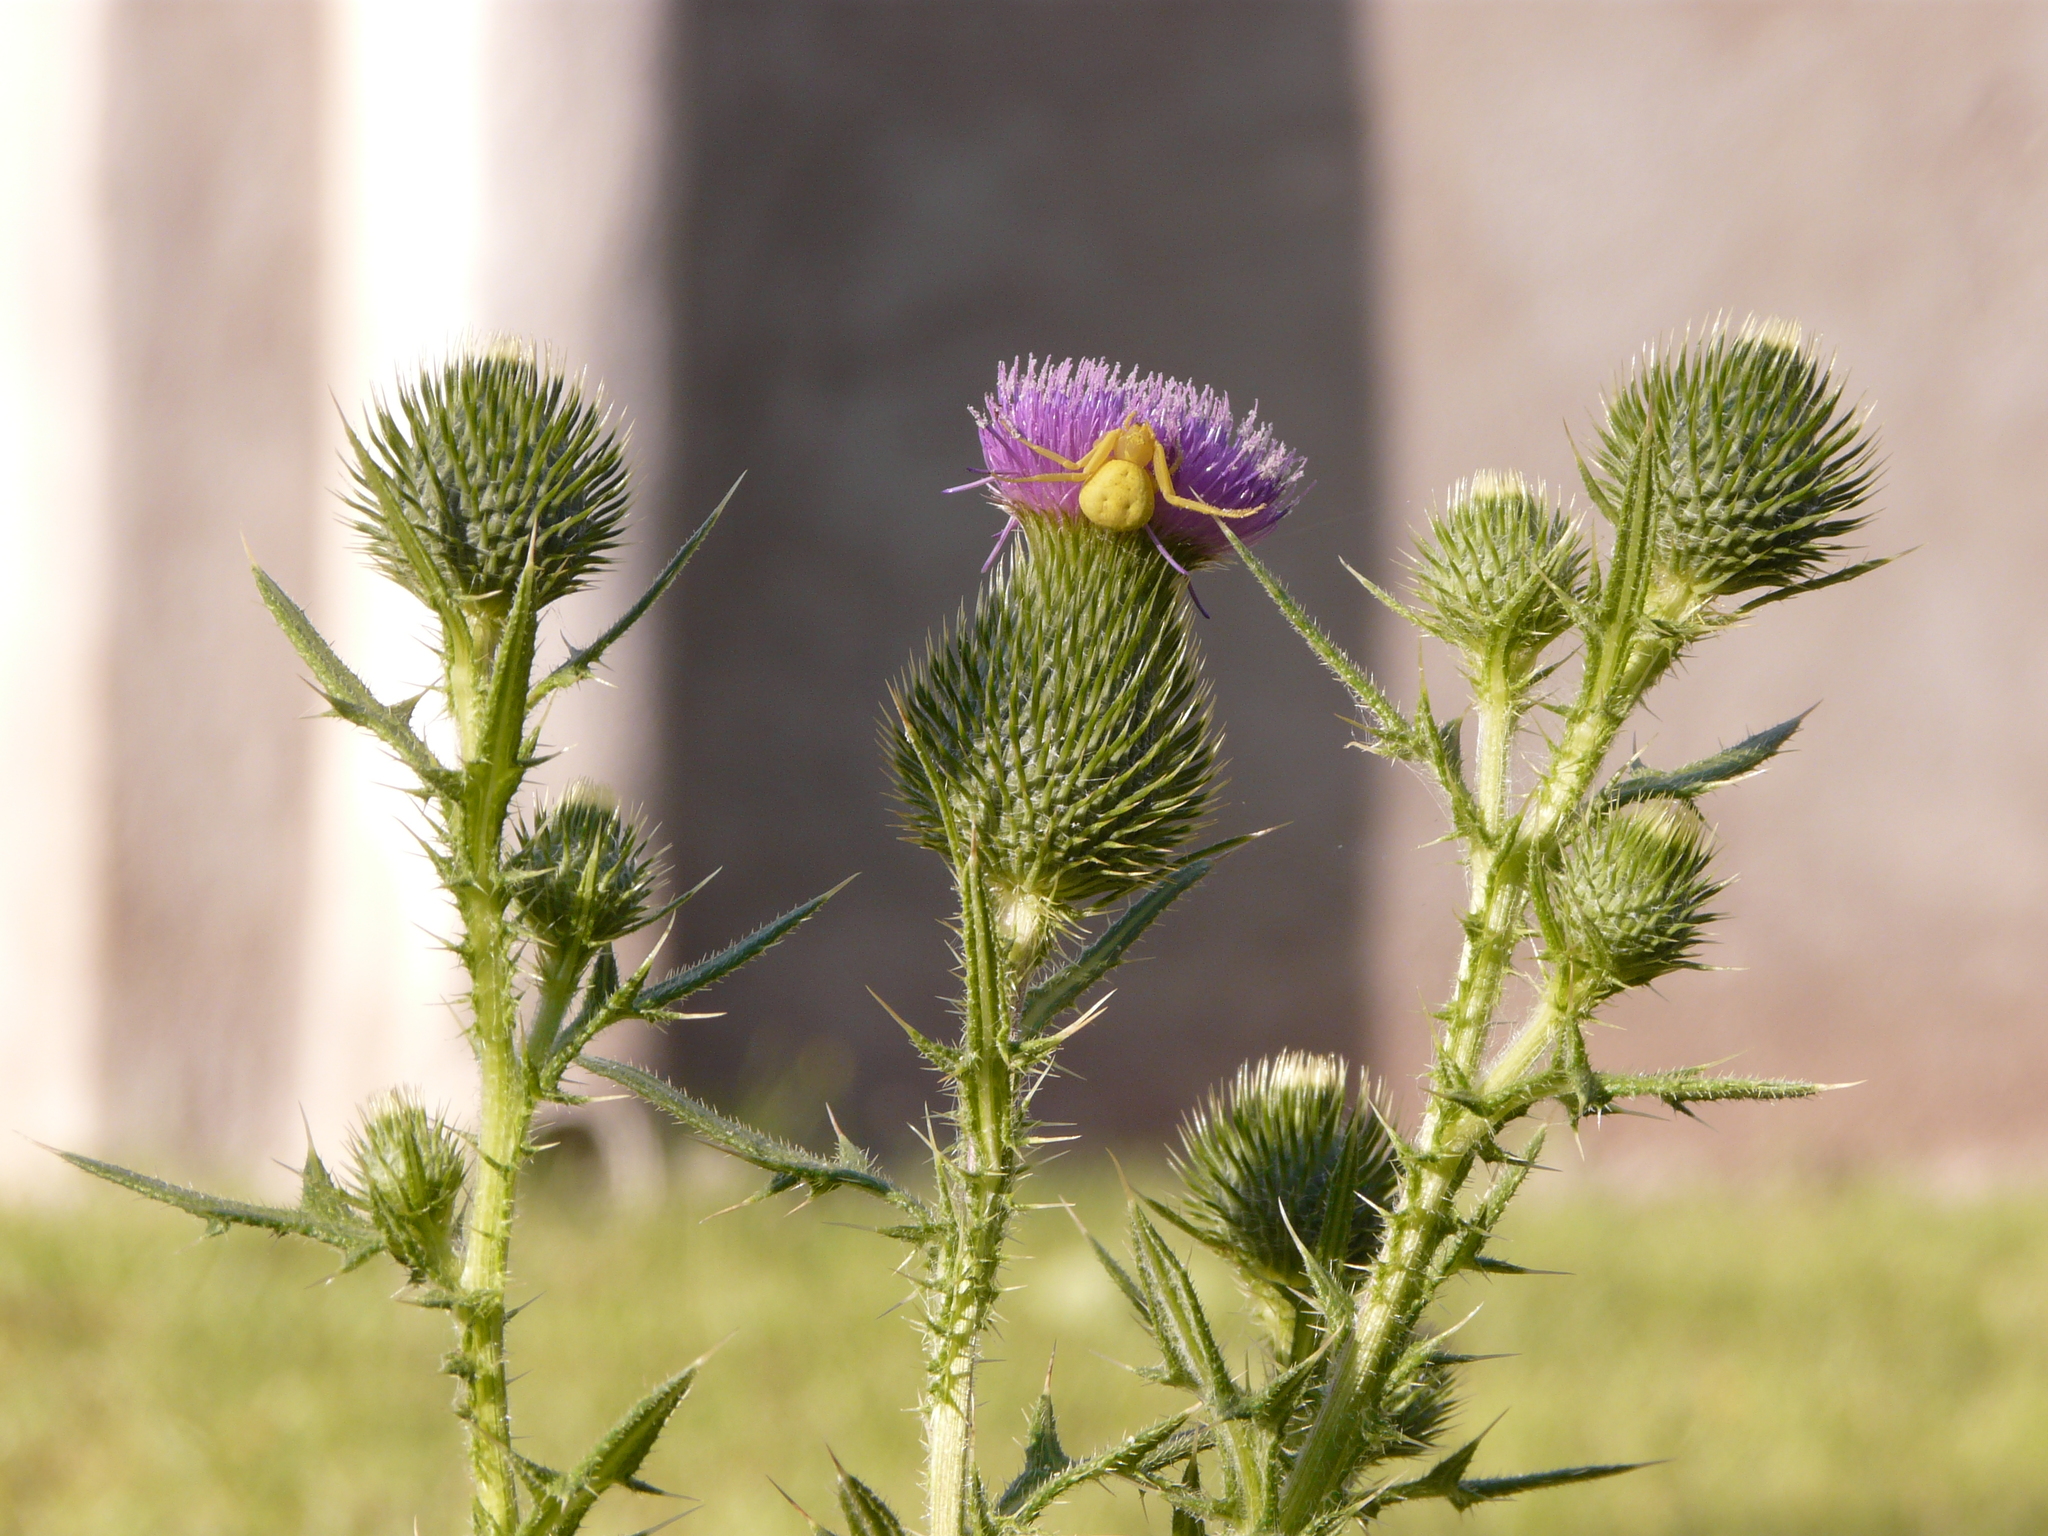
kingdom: Animalia
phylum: Arthropoda
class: Arachnida
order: Araneae
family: Thomisidae
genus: Misumenops
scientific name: Misumenops
